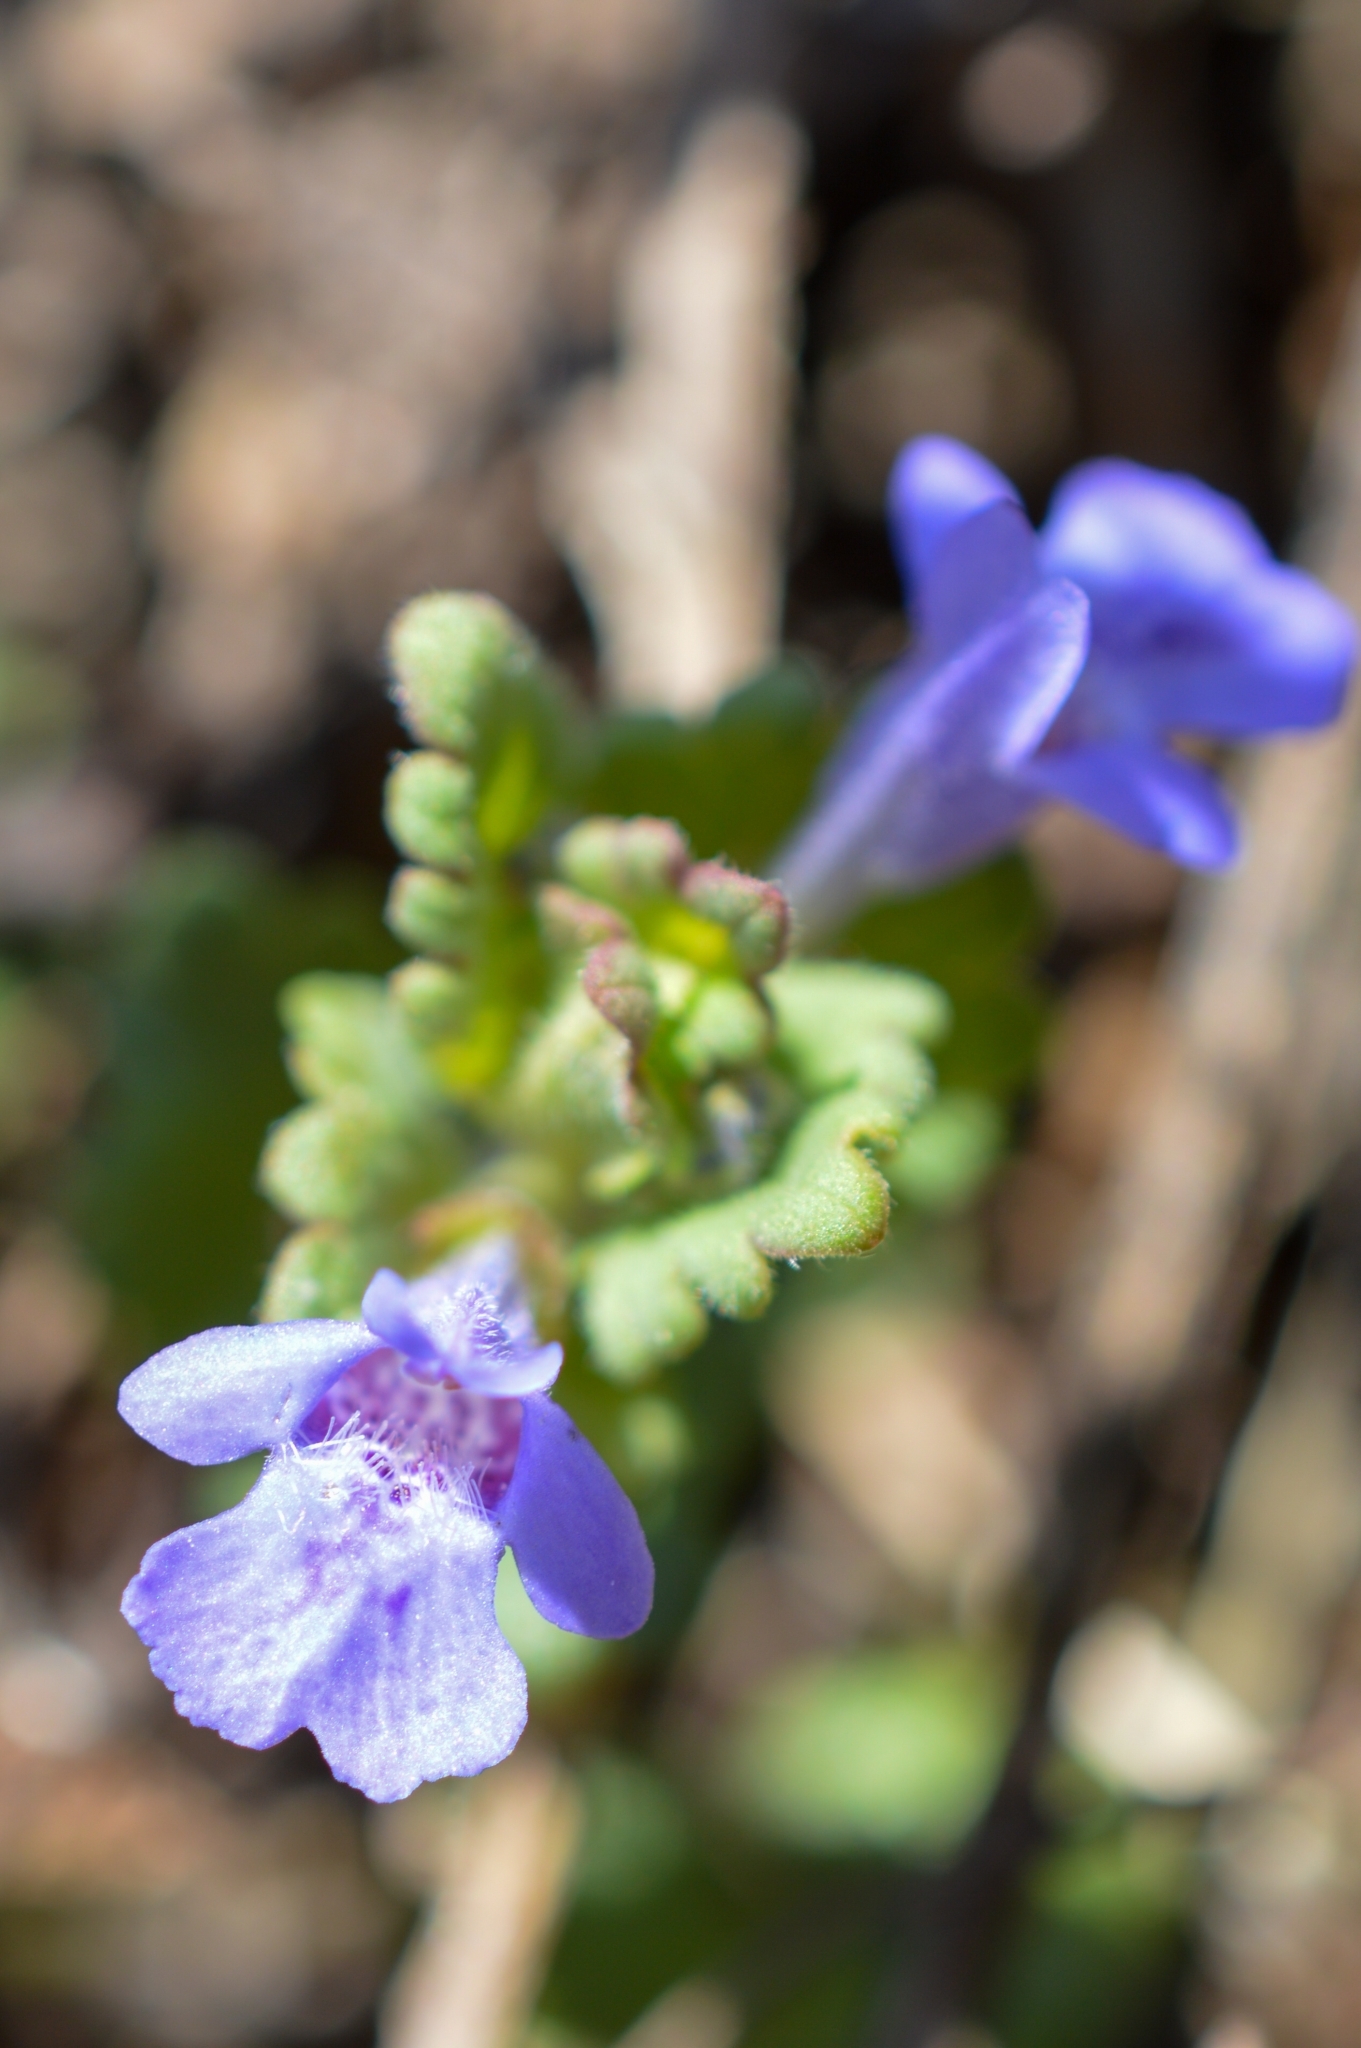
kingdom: Plantae
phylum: Tracheophyta
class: Magnoliopsida
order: Lamiales
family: Lamiaceae
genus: Glechoma
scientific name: Glechoma hederacea
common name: Ground ivy
